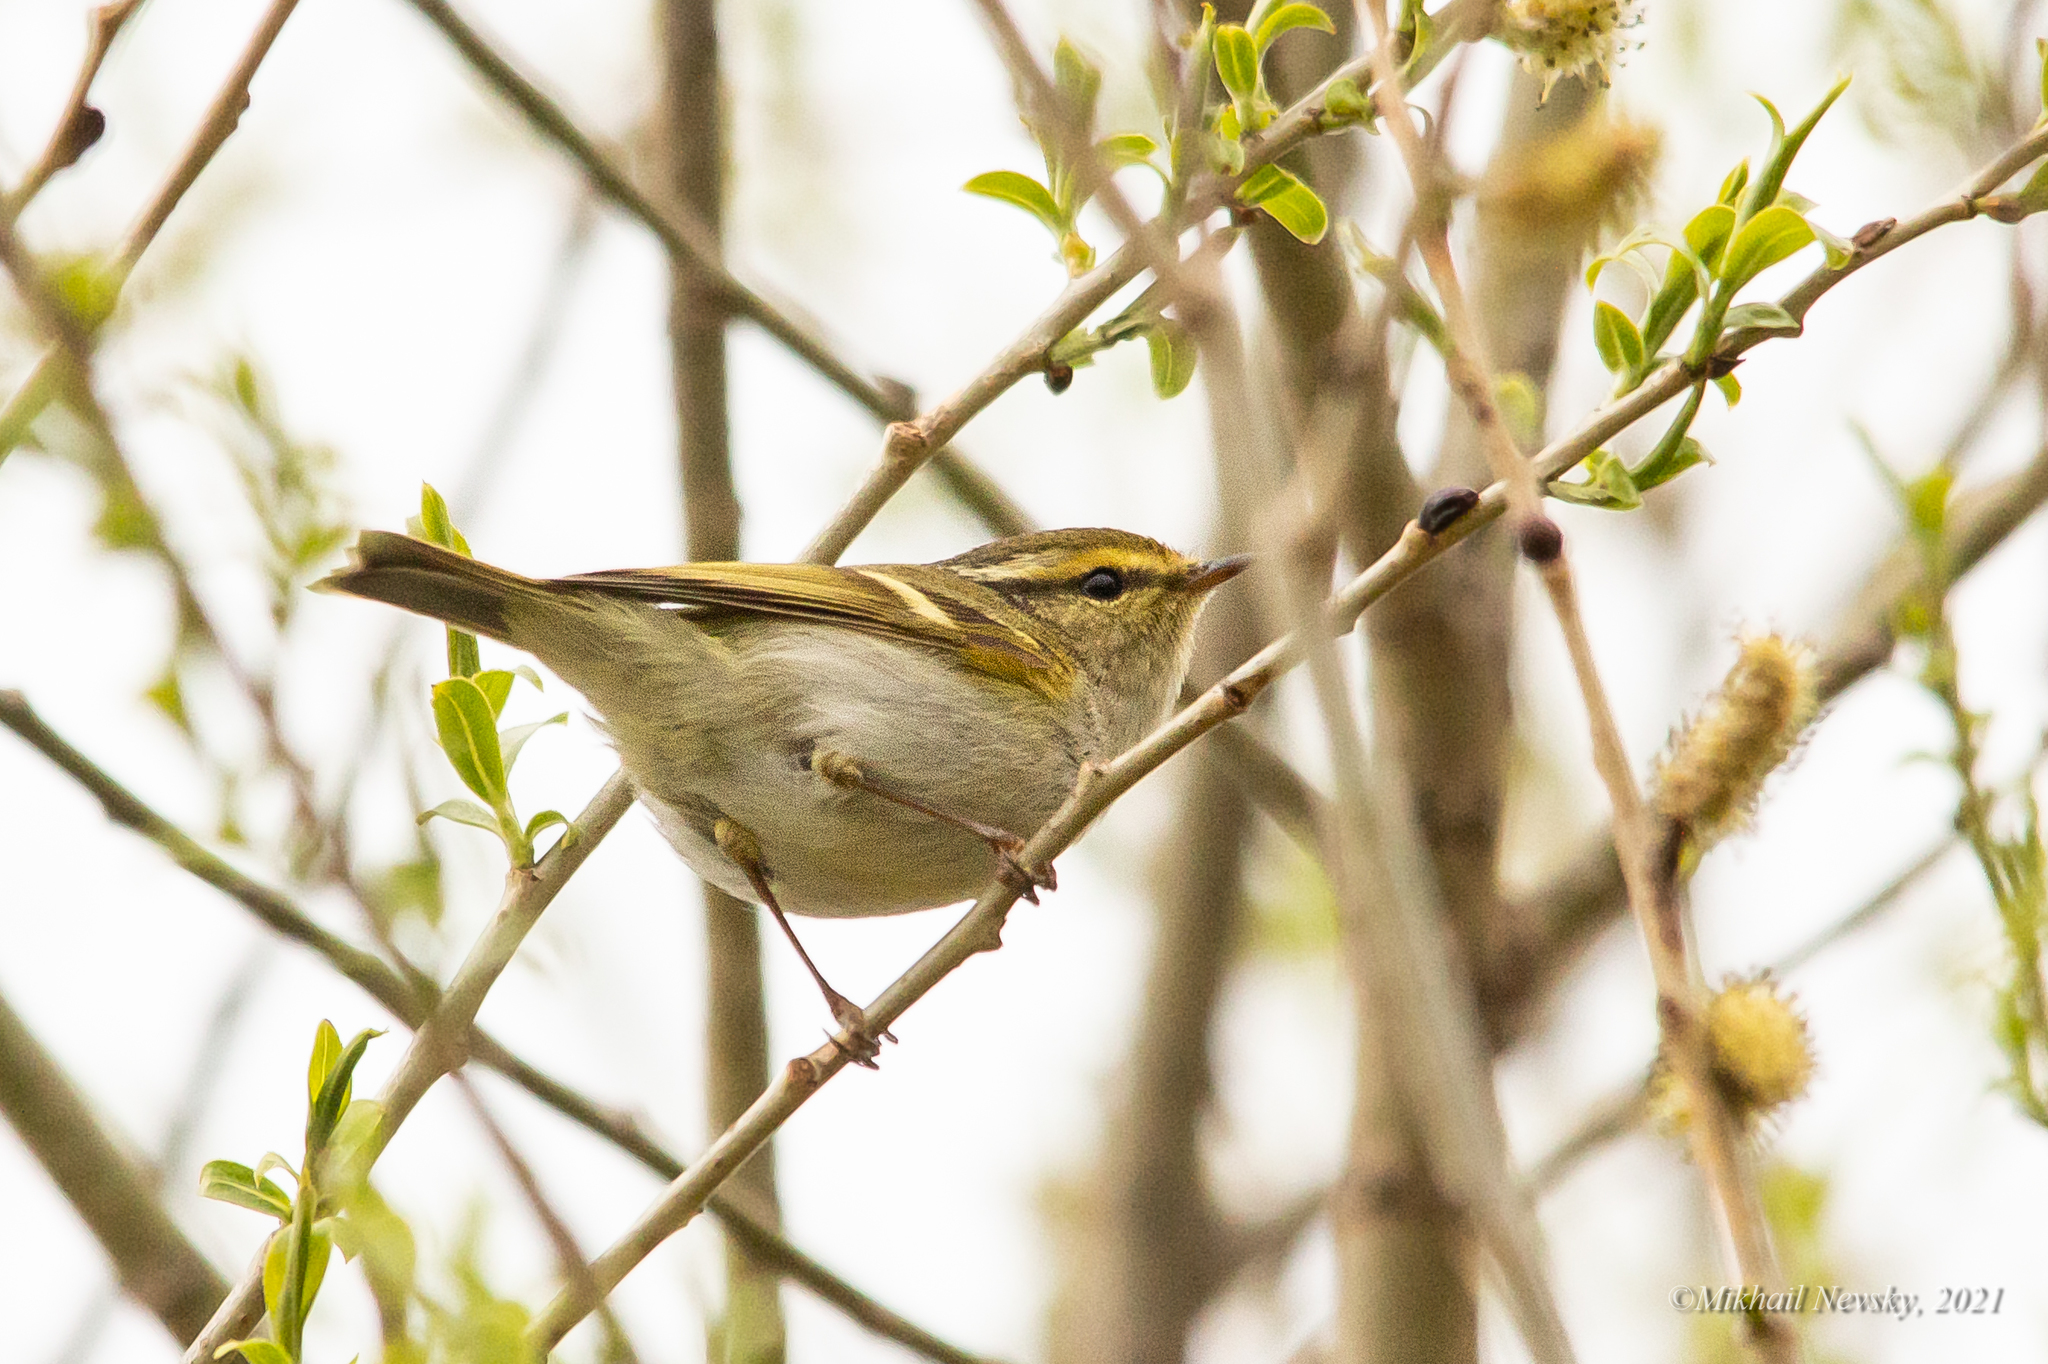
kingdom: Animalia
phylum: Chordata
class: Aves
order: Passeriformes
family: Phylloscopidae
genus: Phylloscopus
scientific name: Phylloscopus proregulus
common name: Pallas's leaf warbler
